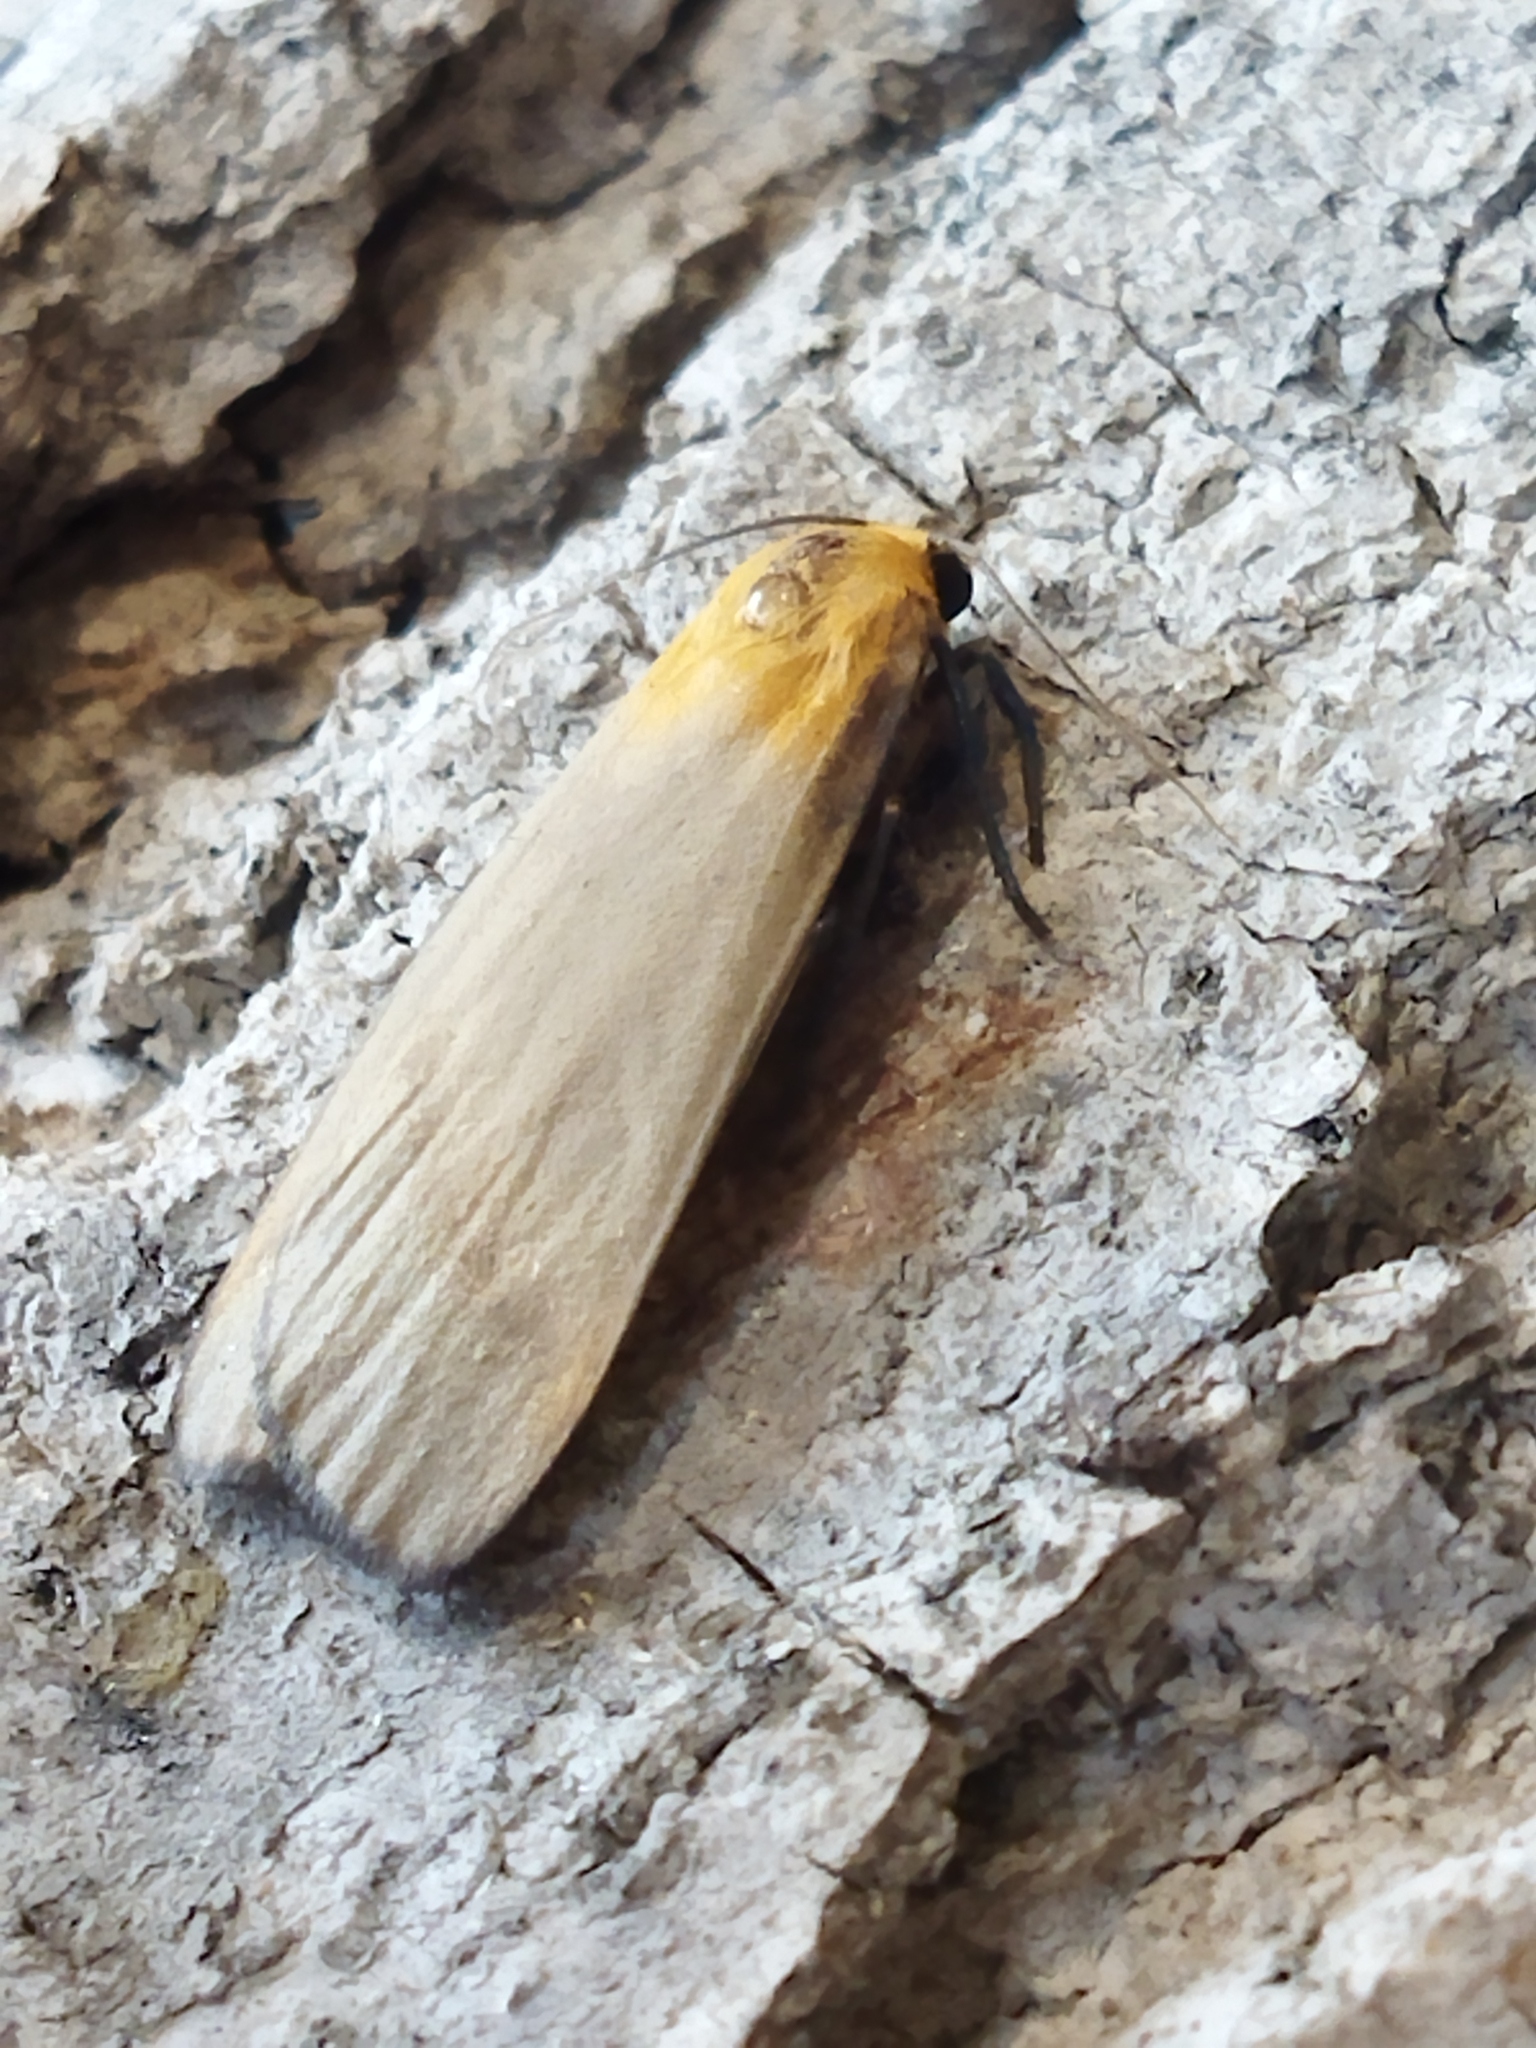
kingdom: Animalia
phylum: Arthropoda
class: Insecta
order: Lepidoptera
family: Erebidae
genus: Lithosia
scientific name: Lithosia quadra
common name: Four-spotted footman
